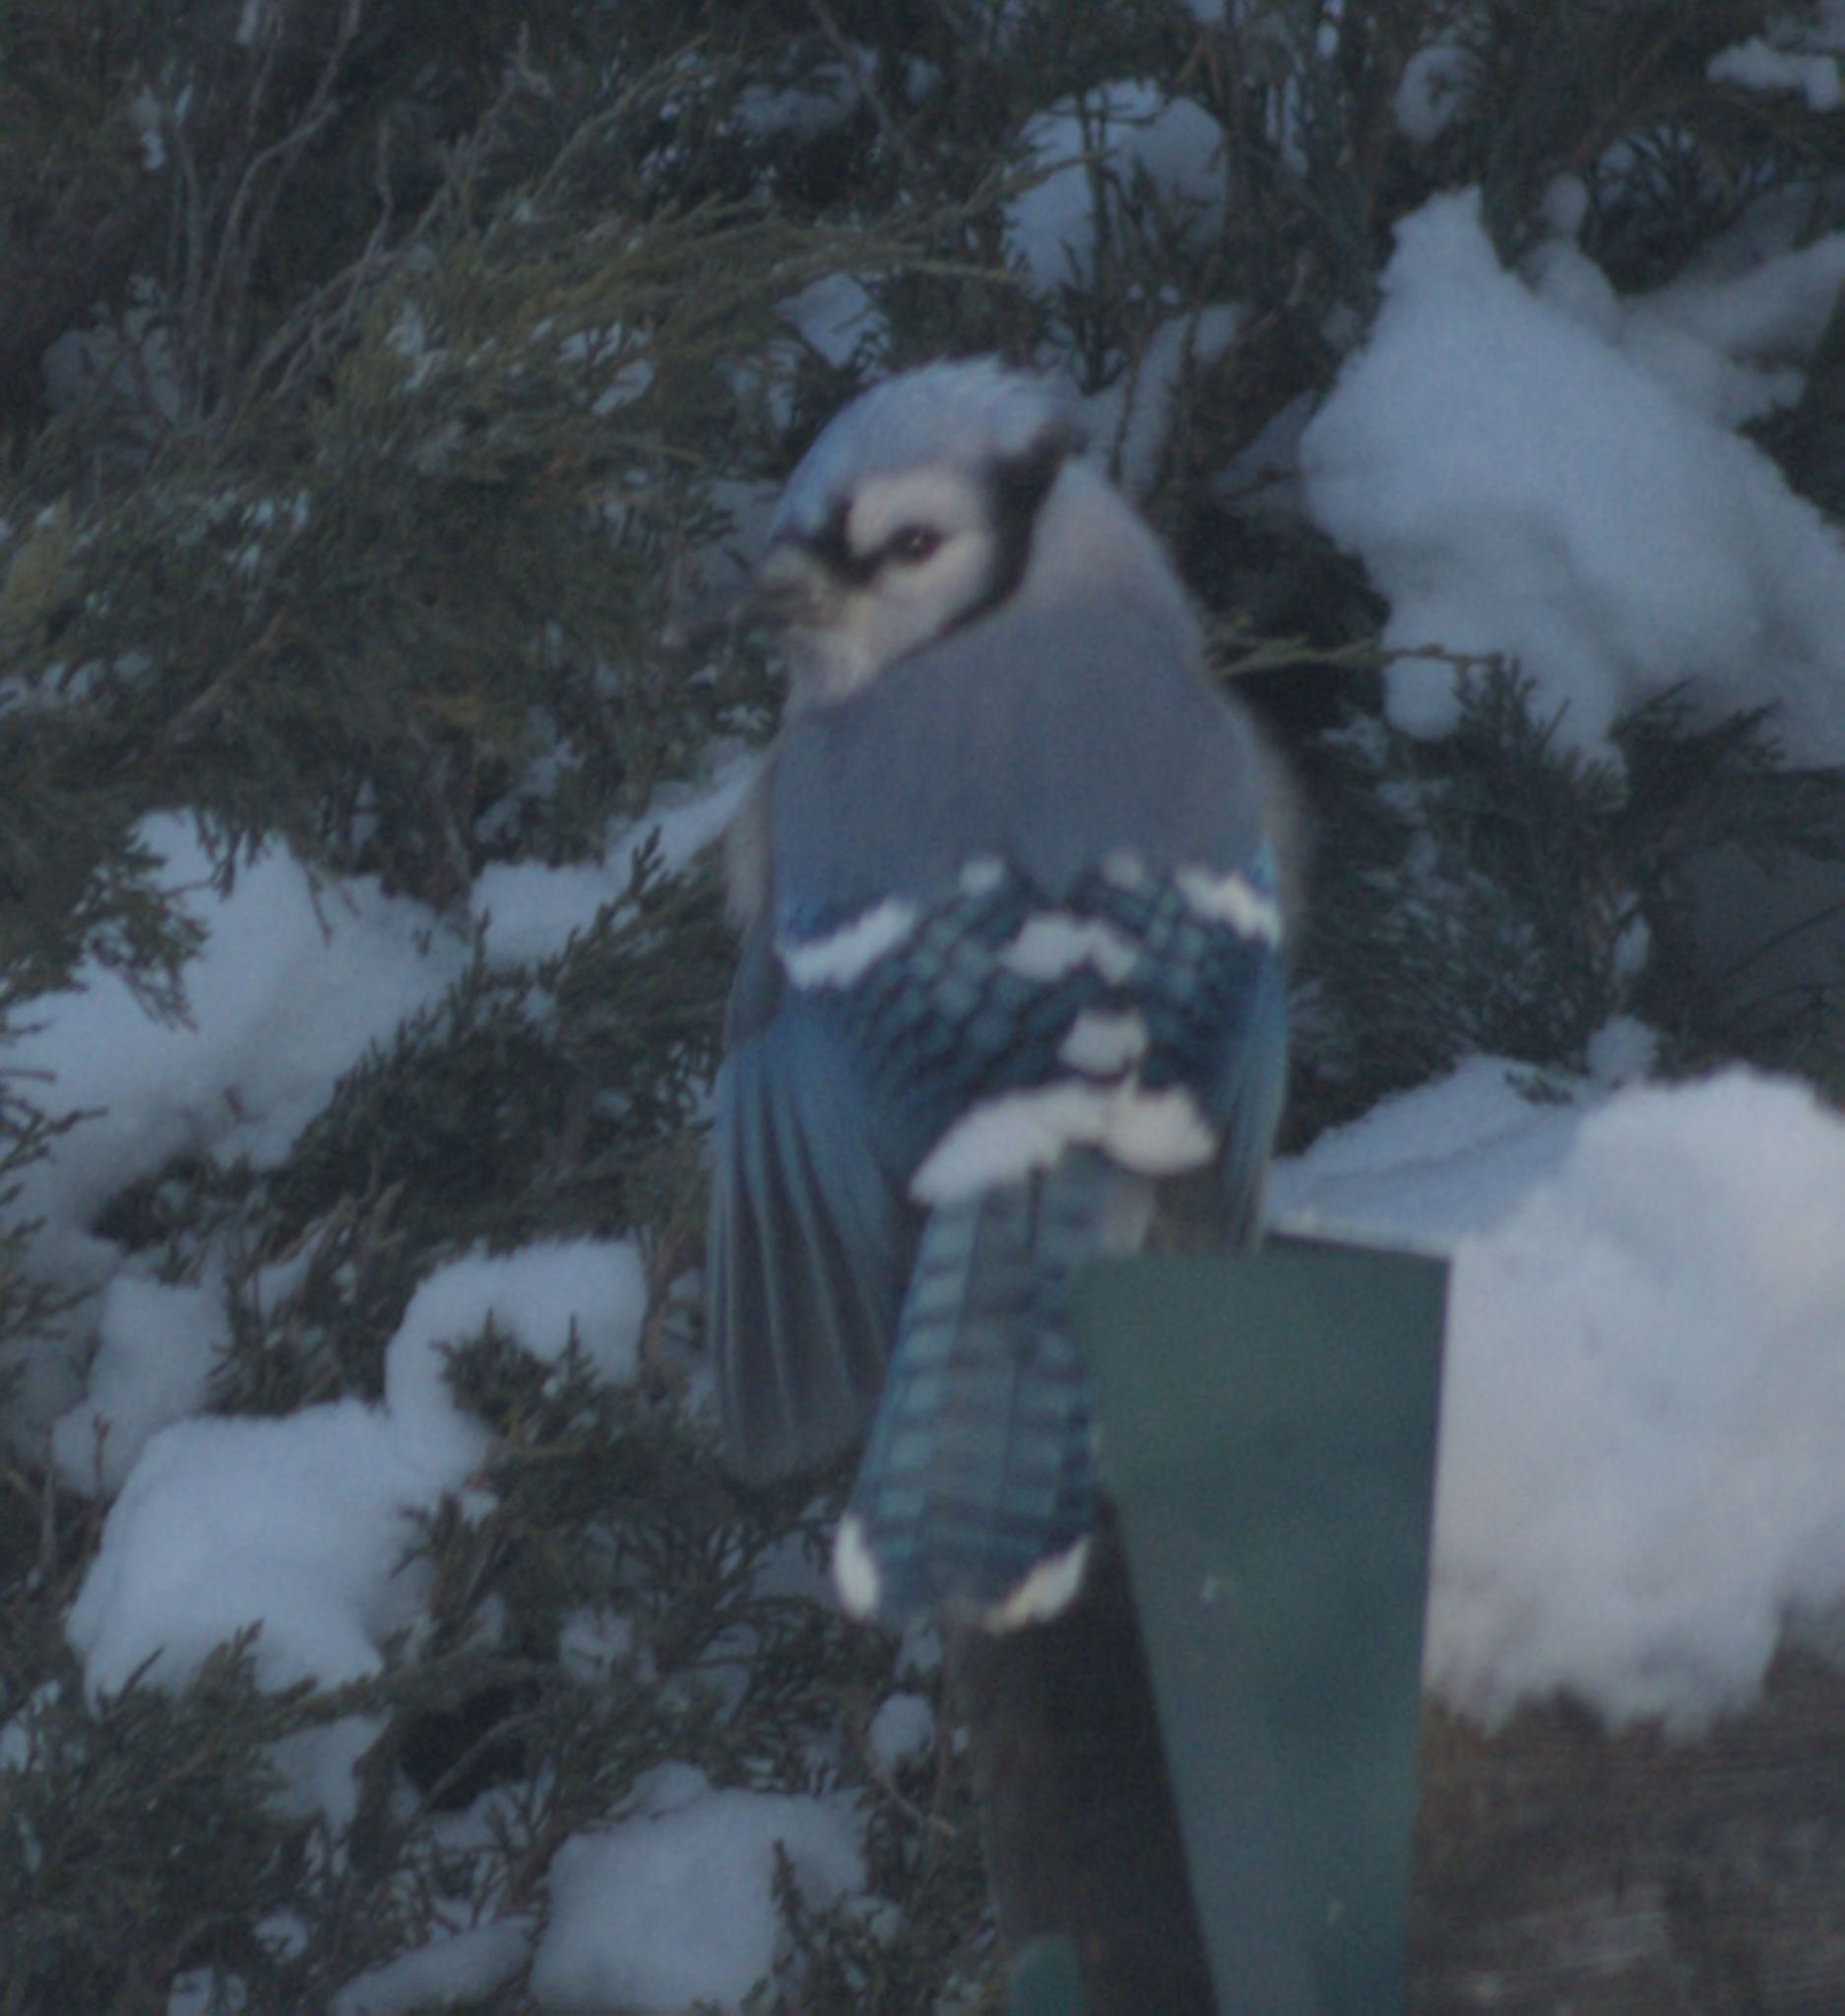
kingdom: Animalia
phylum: Chordata
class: Aves
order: Passeriformes
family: Corvidae
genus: Cyanocitta
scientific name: Cyanocitta cristata
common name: Blue jay
